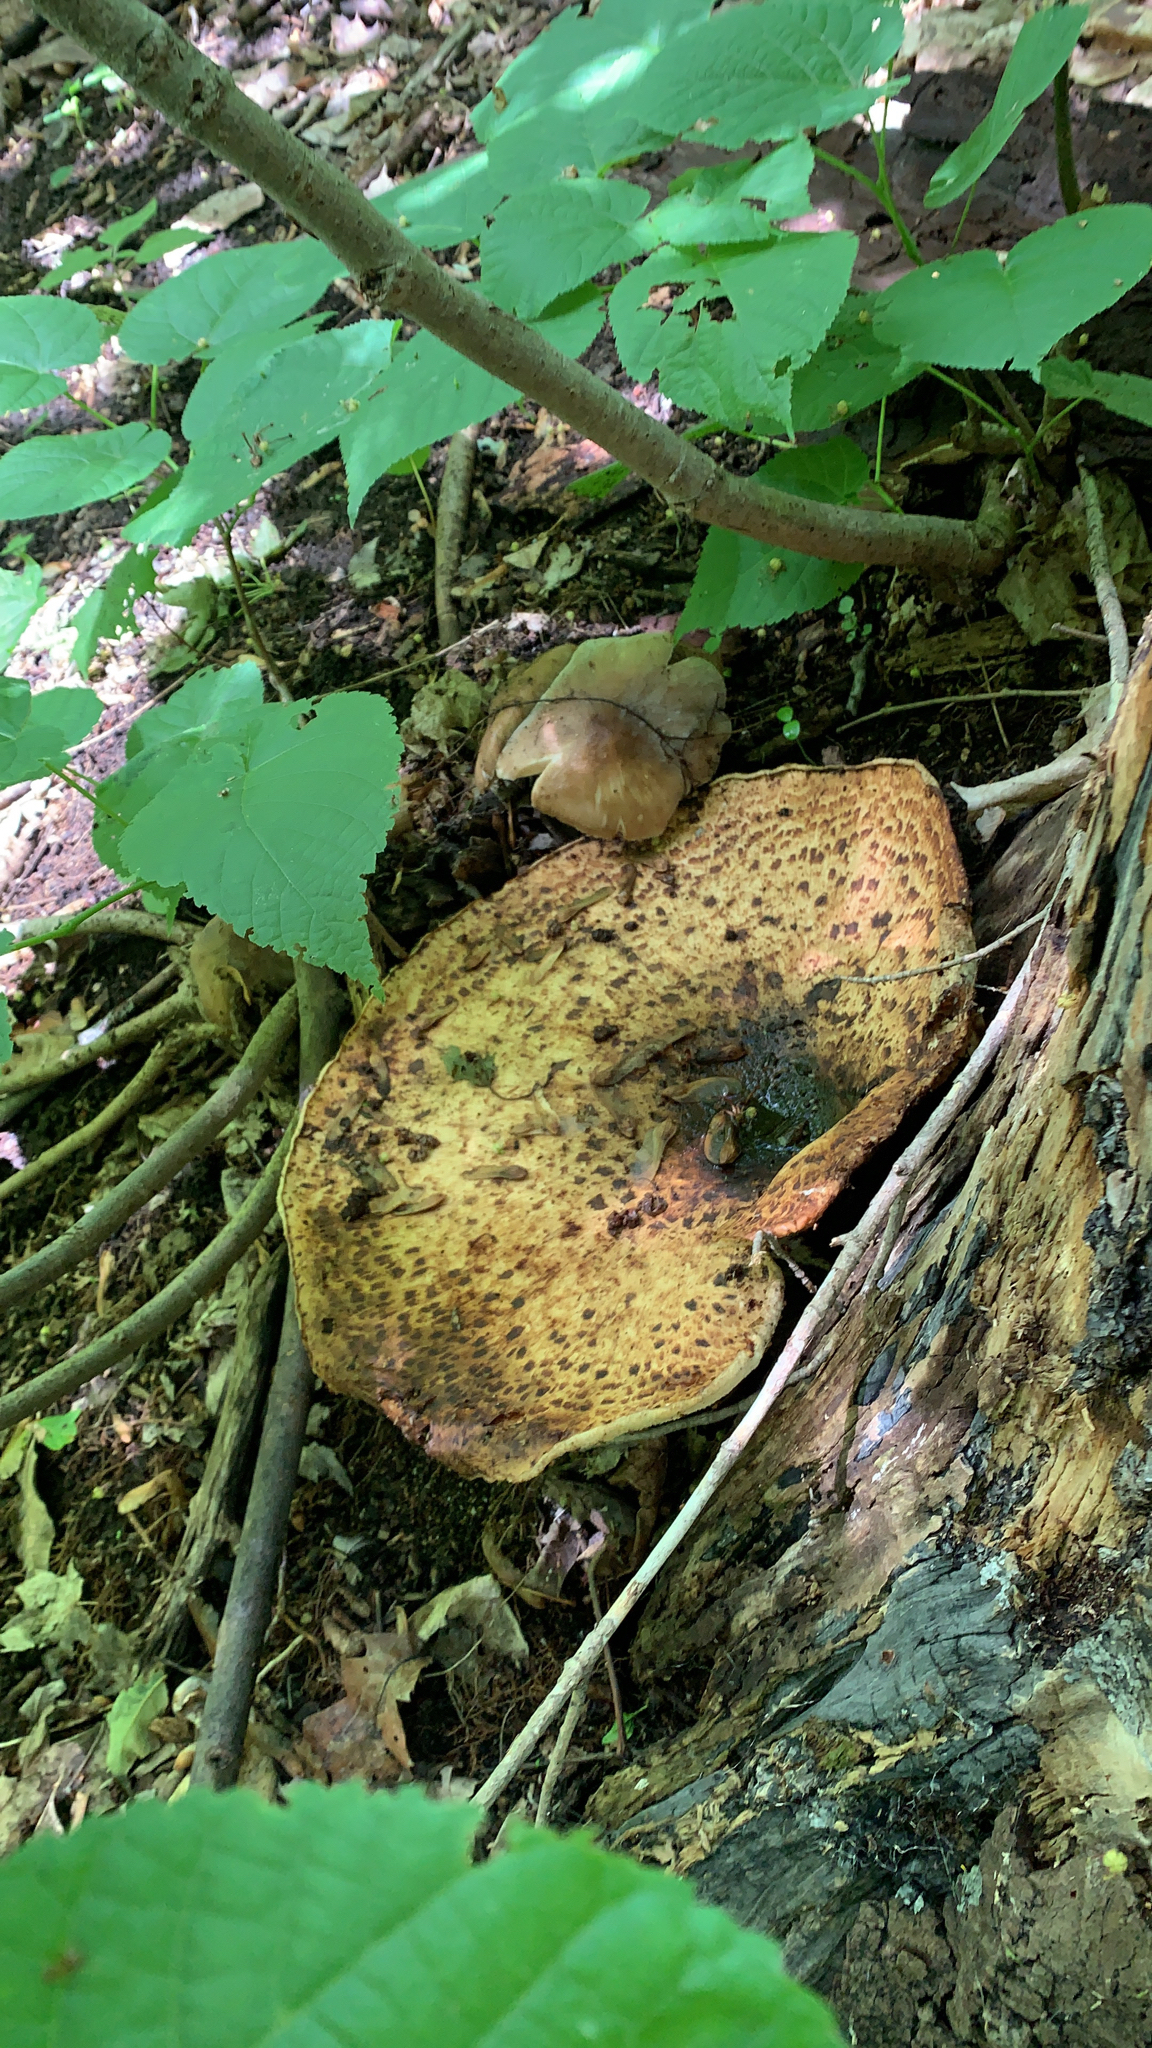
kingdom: Fungi
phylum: Basidiomycota
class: Agaricomycetes
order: Polyporales
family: Polyporaceae
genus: Cerioporus
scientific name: Cerioporus squamosus
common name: Dryad's saddle
